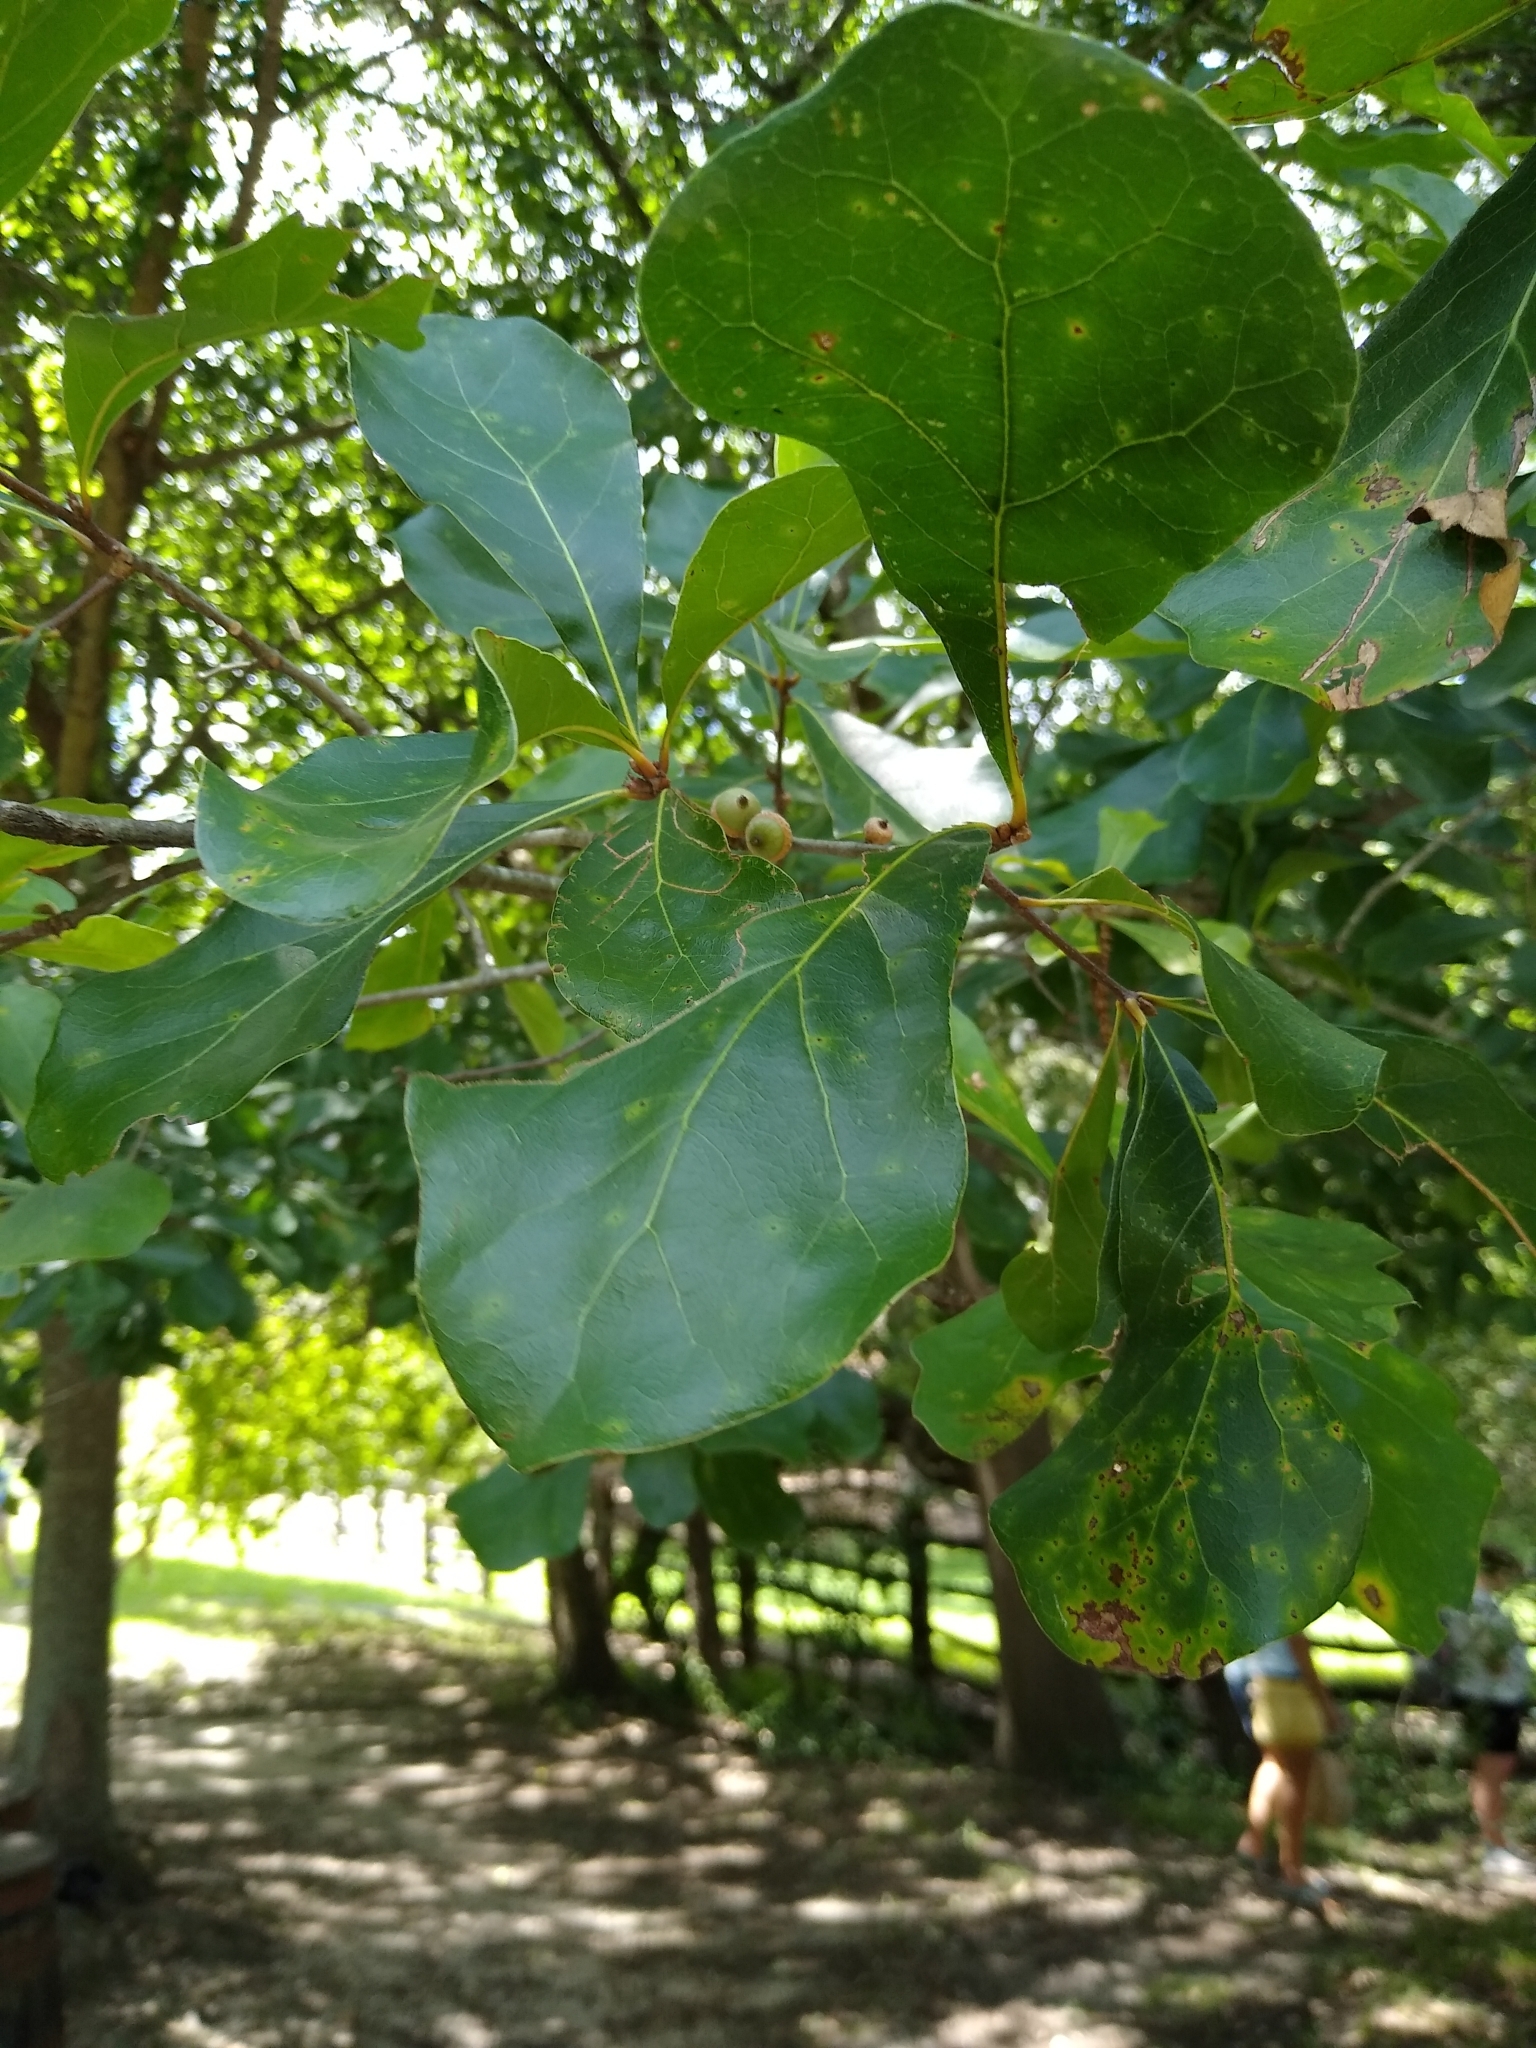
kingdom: Plantae
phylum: Tracheophyta
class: Magnoliopsida
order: Fagales
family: Fagaceae
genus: Quercus
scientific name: Quercus nigra
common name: Water oak
